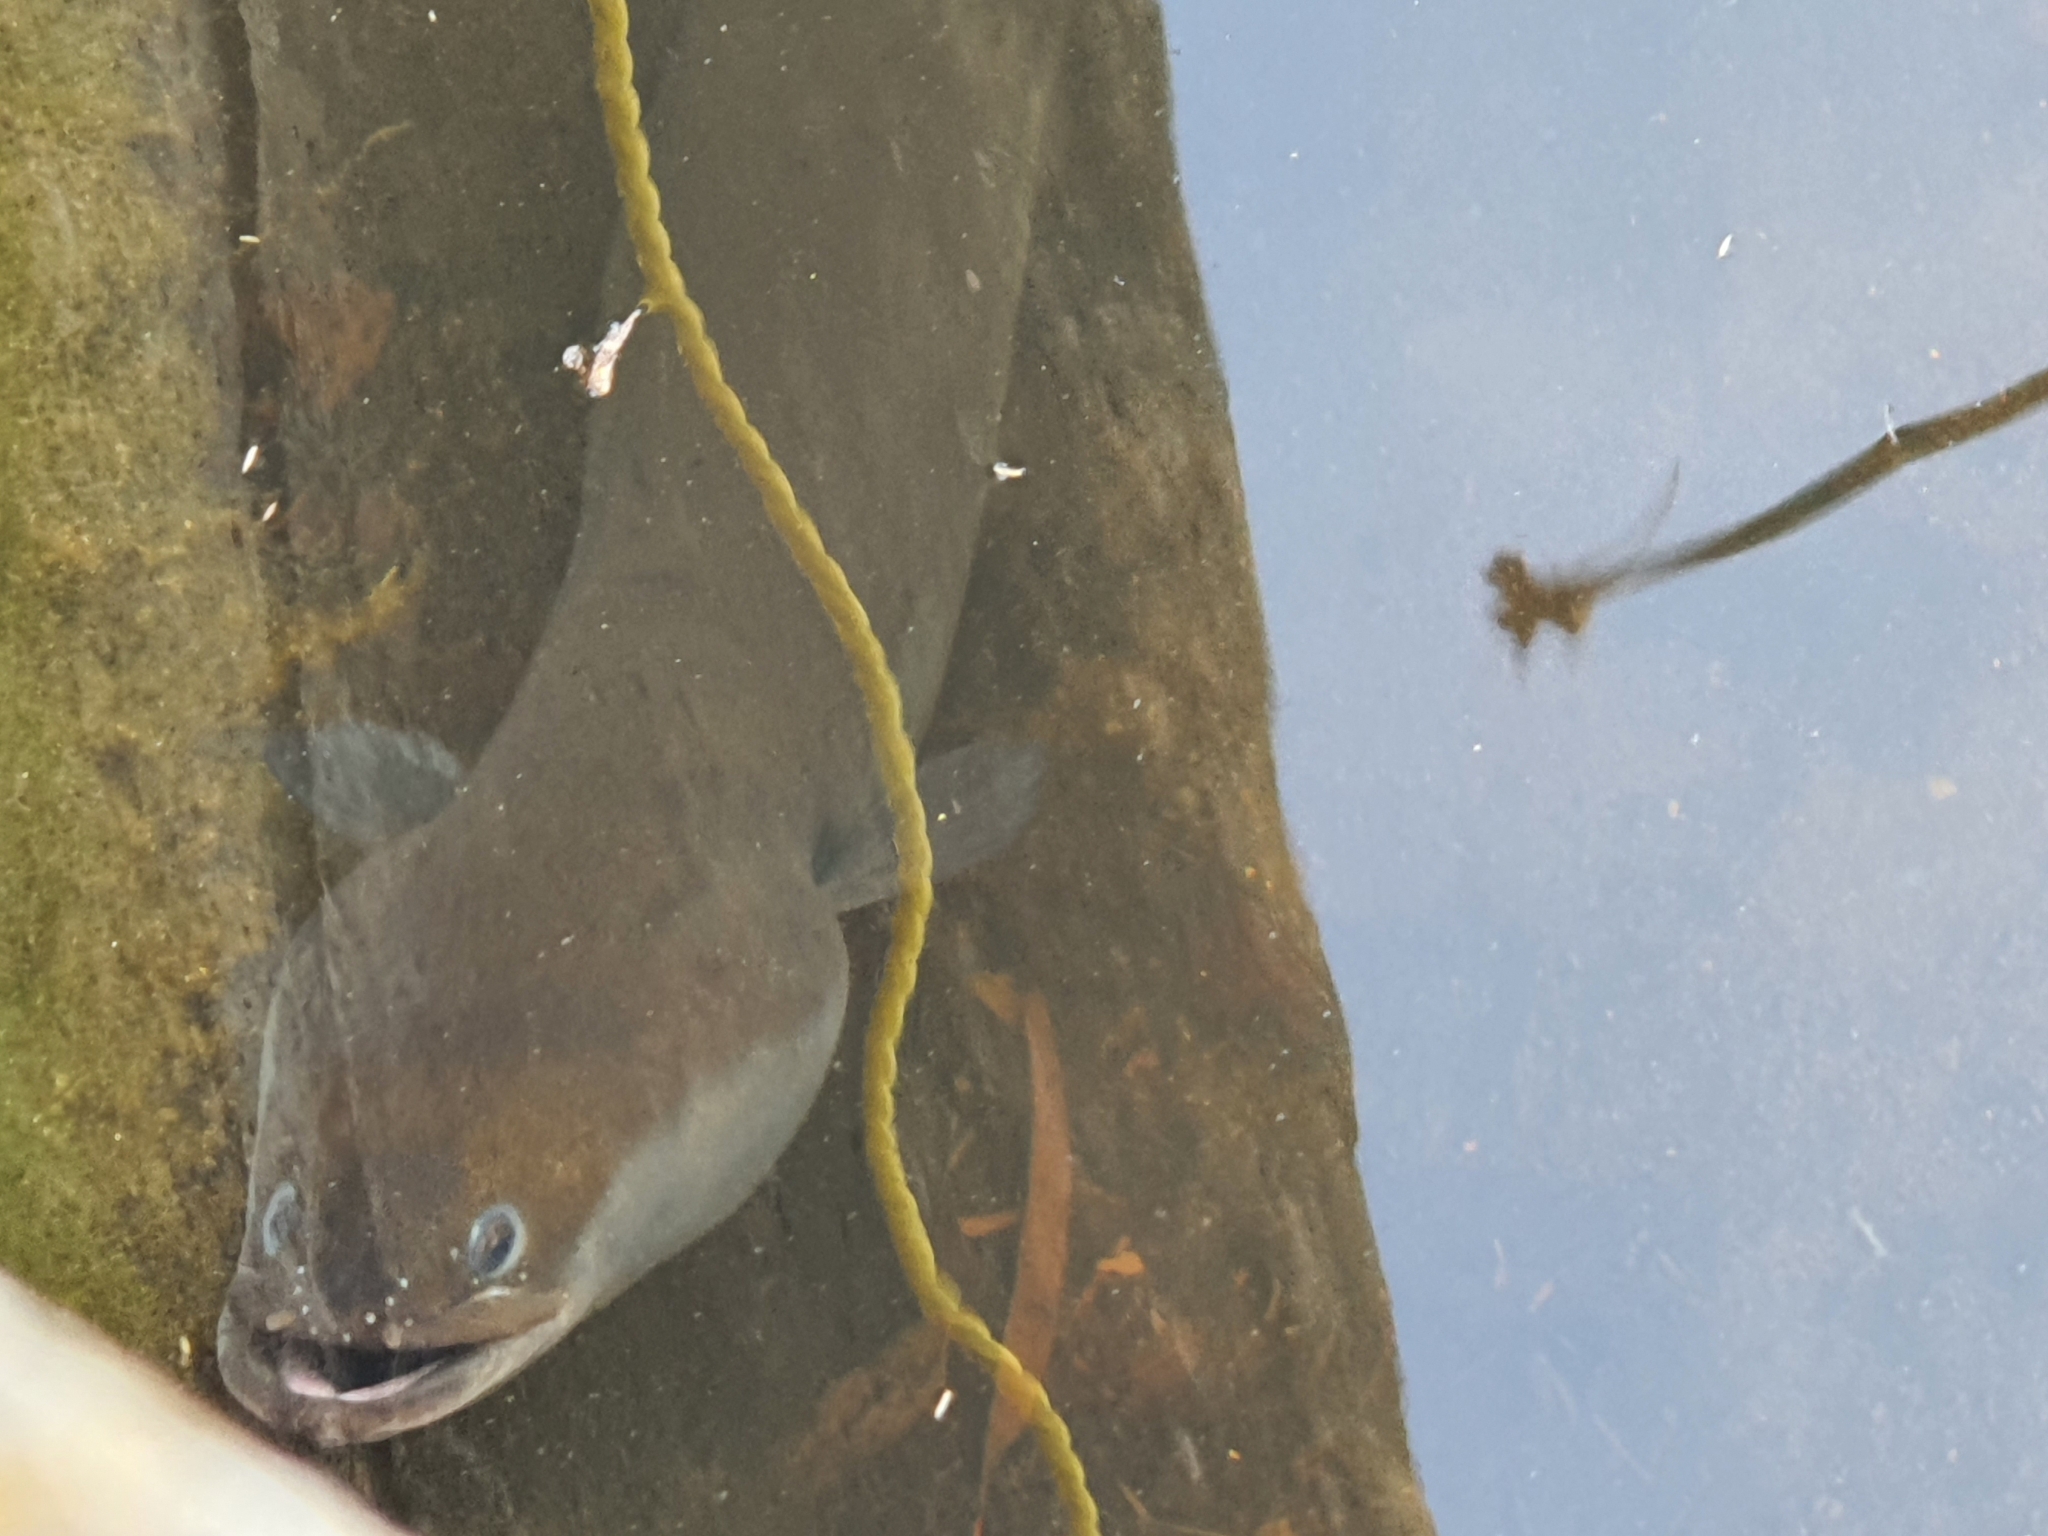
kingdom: Animalia
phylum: Chordata
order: Anguilliformes
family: Anguillidae
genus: Anguilla
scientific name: Anguilla australis
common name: Shortfin eel
